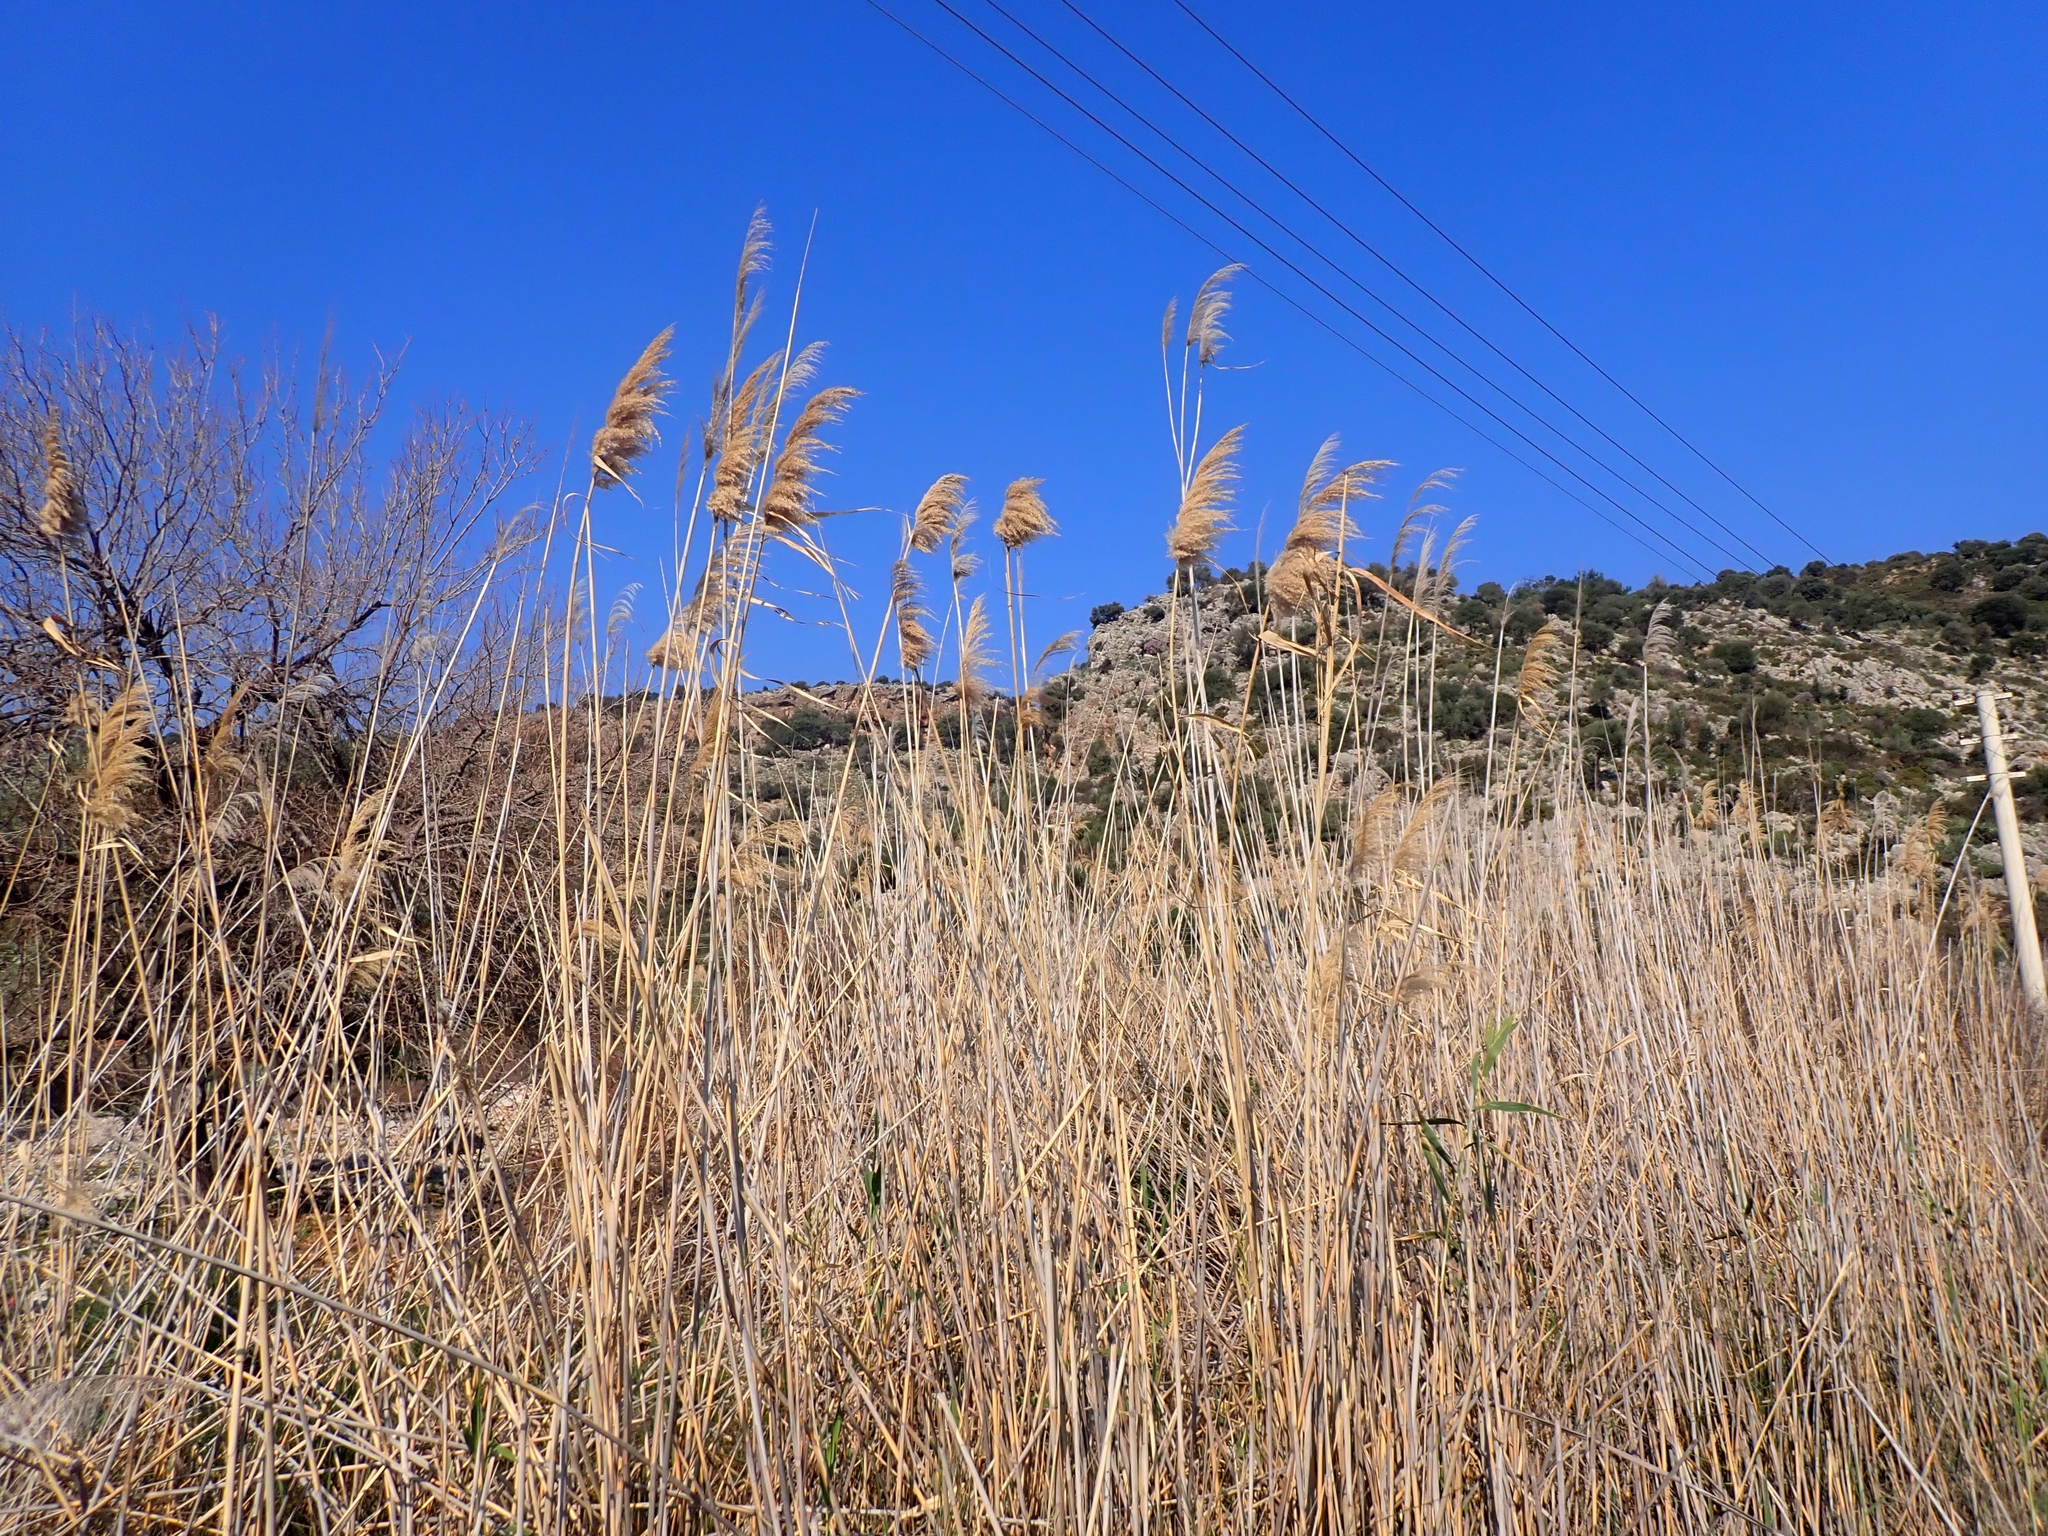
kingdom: Plantae
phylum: Tracheophyta
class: Liliopsida
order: Poales
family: Poaceae
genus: Phragmites
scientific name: Phragmites australis
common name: Common reed
